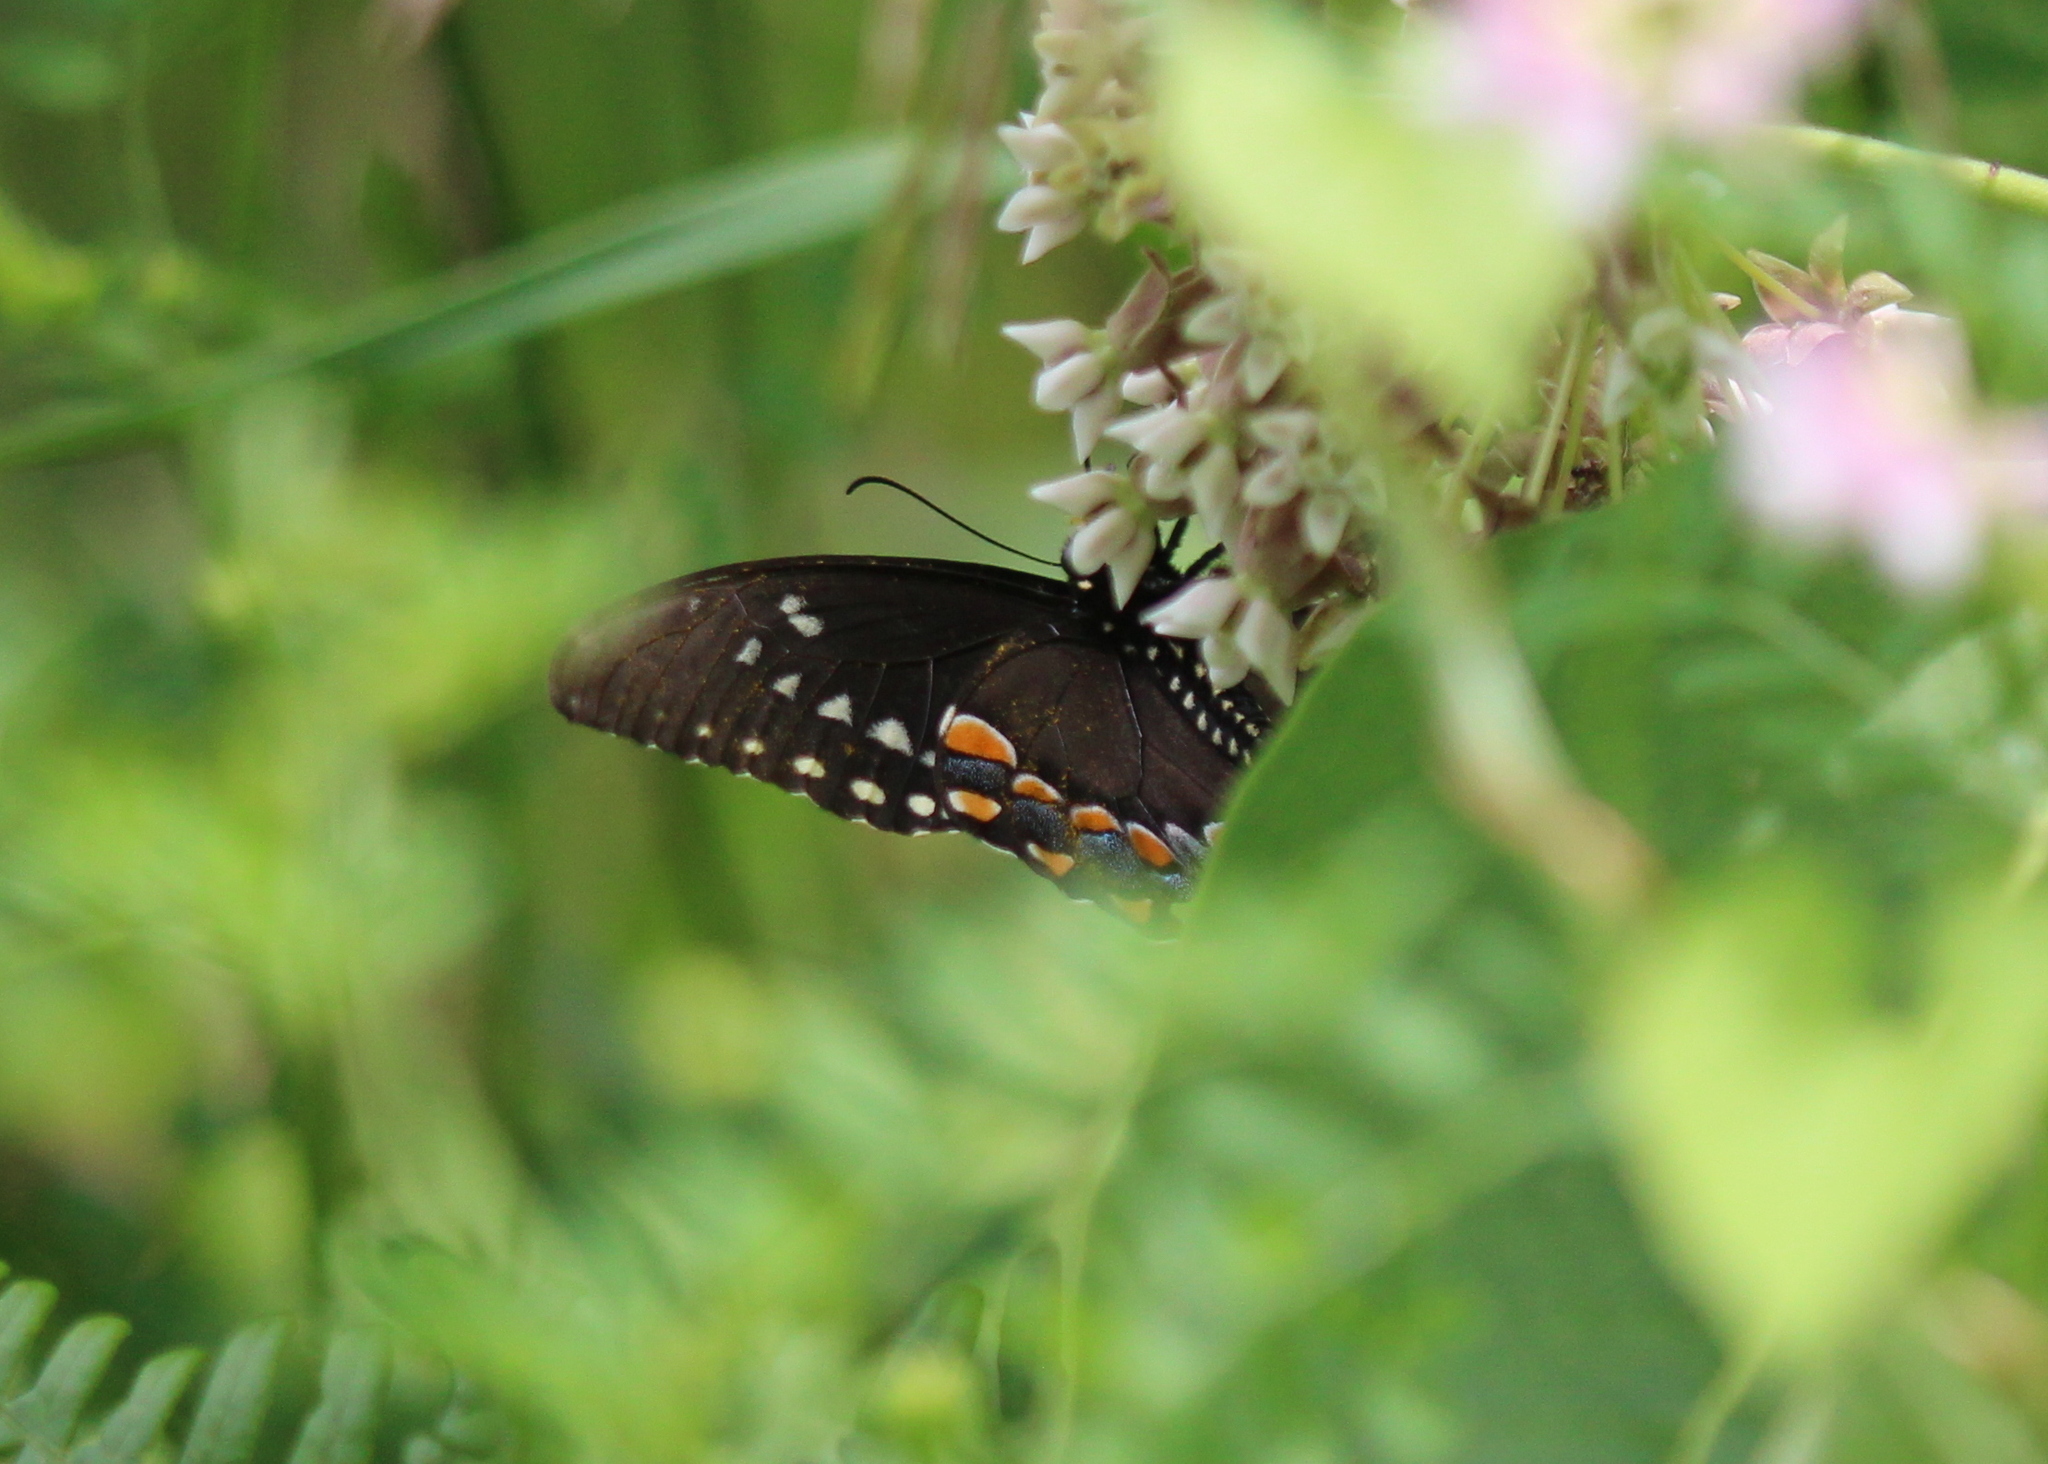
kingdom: Animalia
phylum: Arthropoda
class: Insecta
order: Lepidoptera
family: Papilionidae
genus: Papilio
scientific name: Papilio troilus
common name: Spicebush swallowtail
